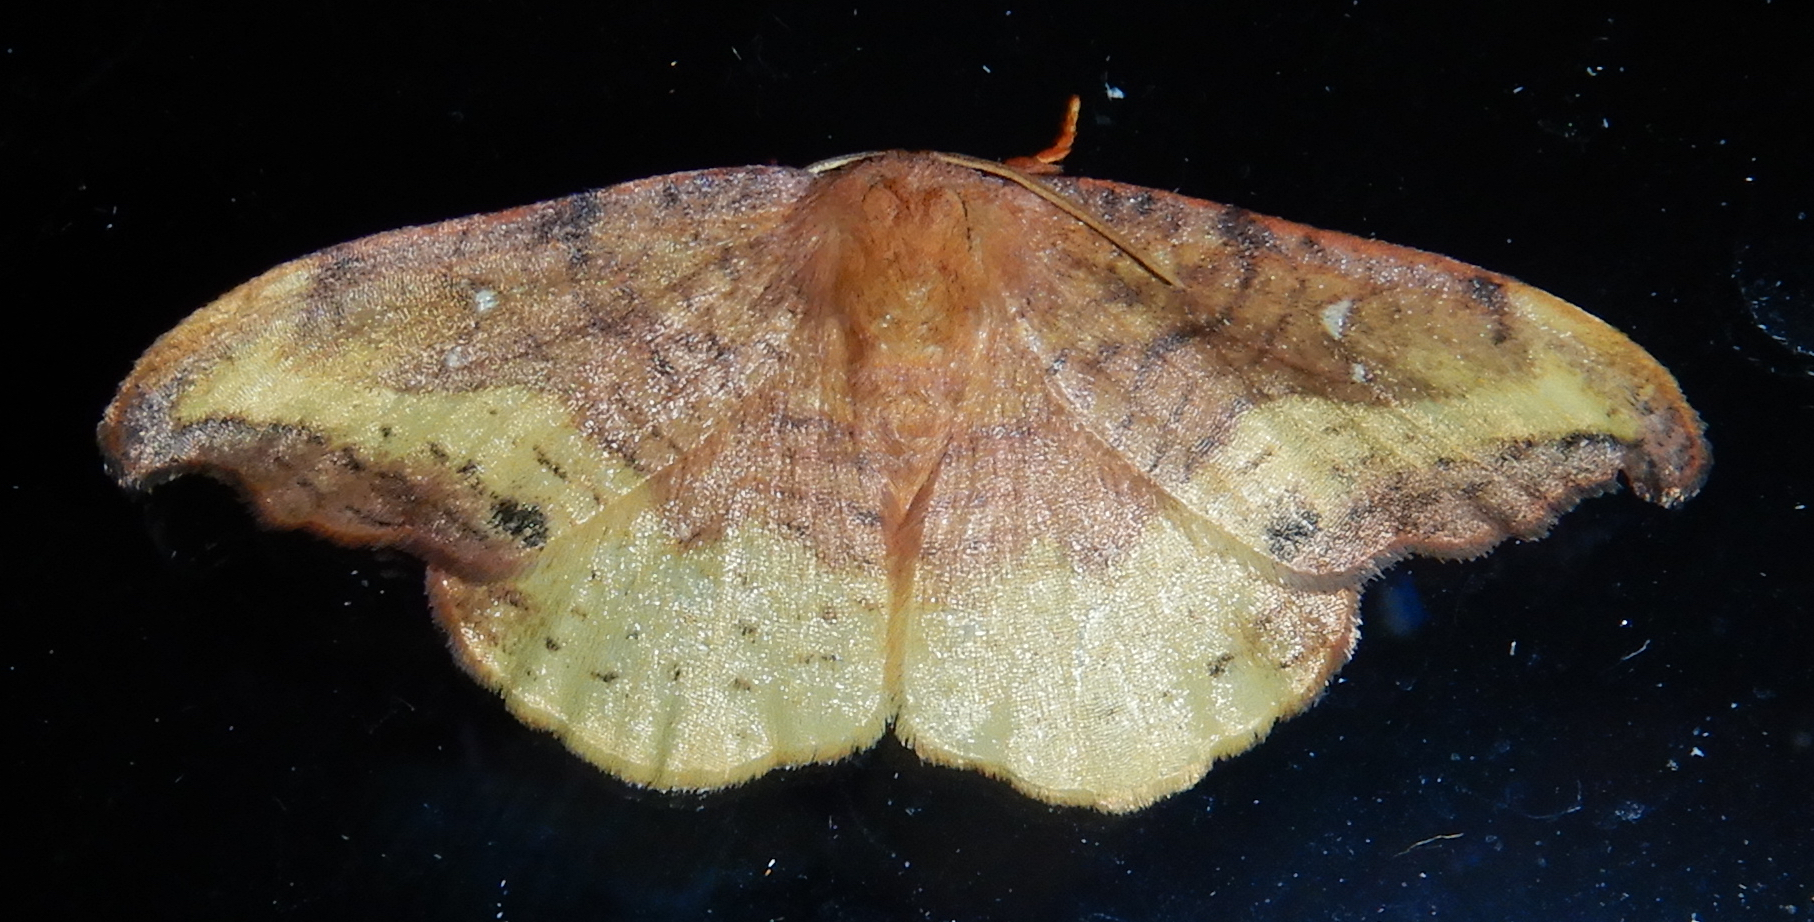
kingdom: Animalia
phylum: Arthropoda
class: Insecta
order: Lepidoptera
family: Drepanidae
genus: Oreta
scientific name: Oreta rosea
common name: Rose hooktip
